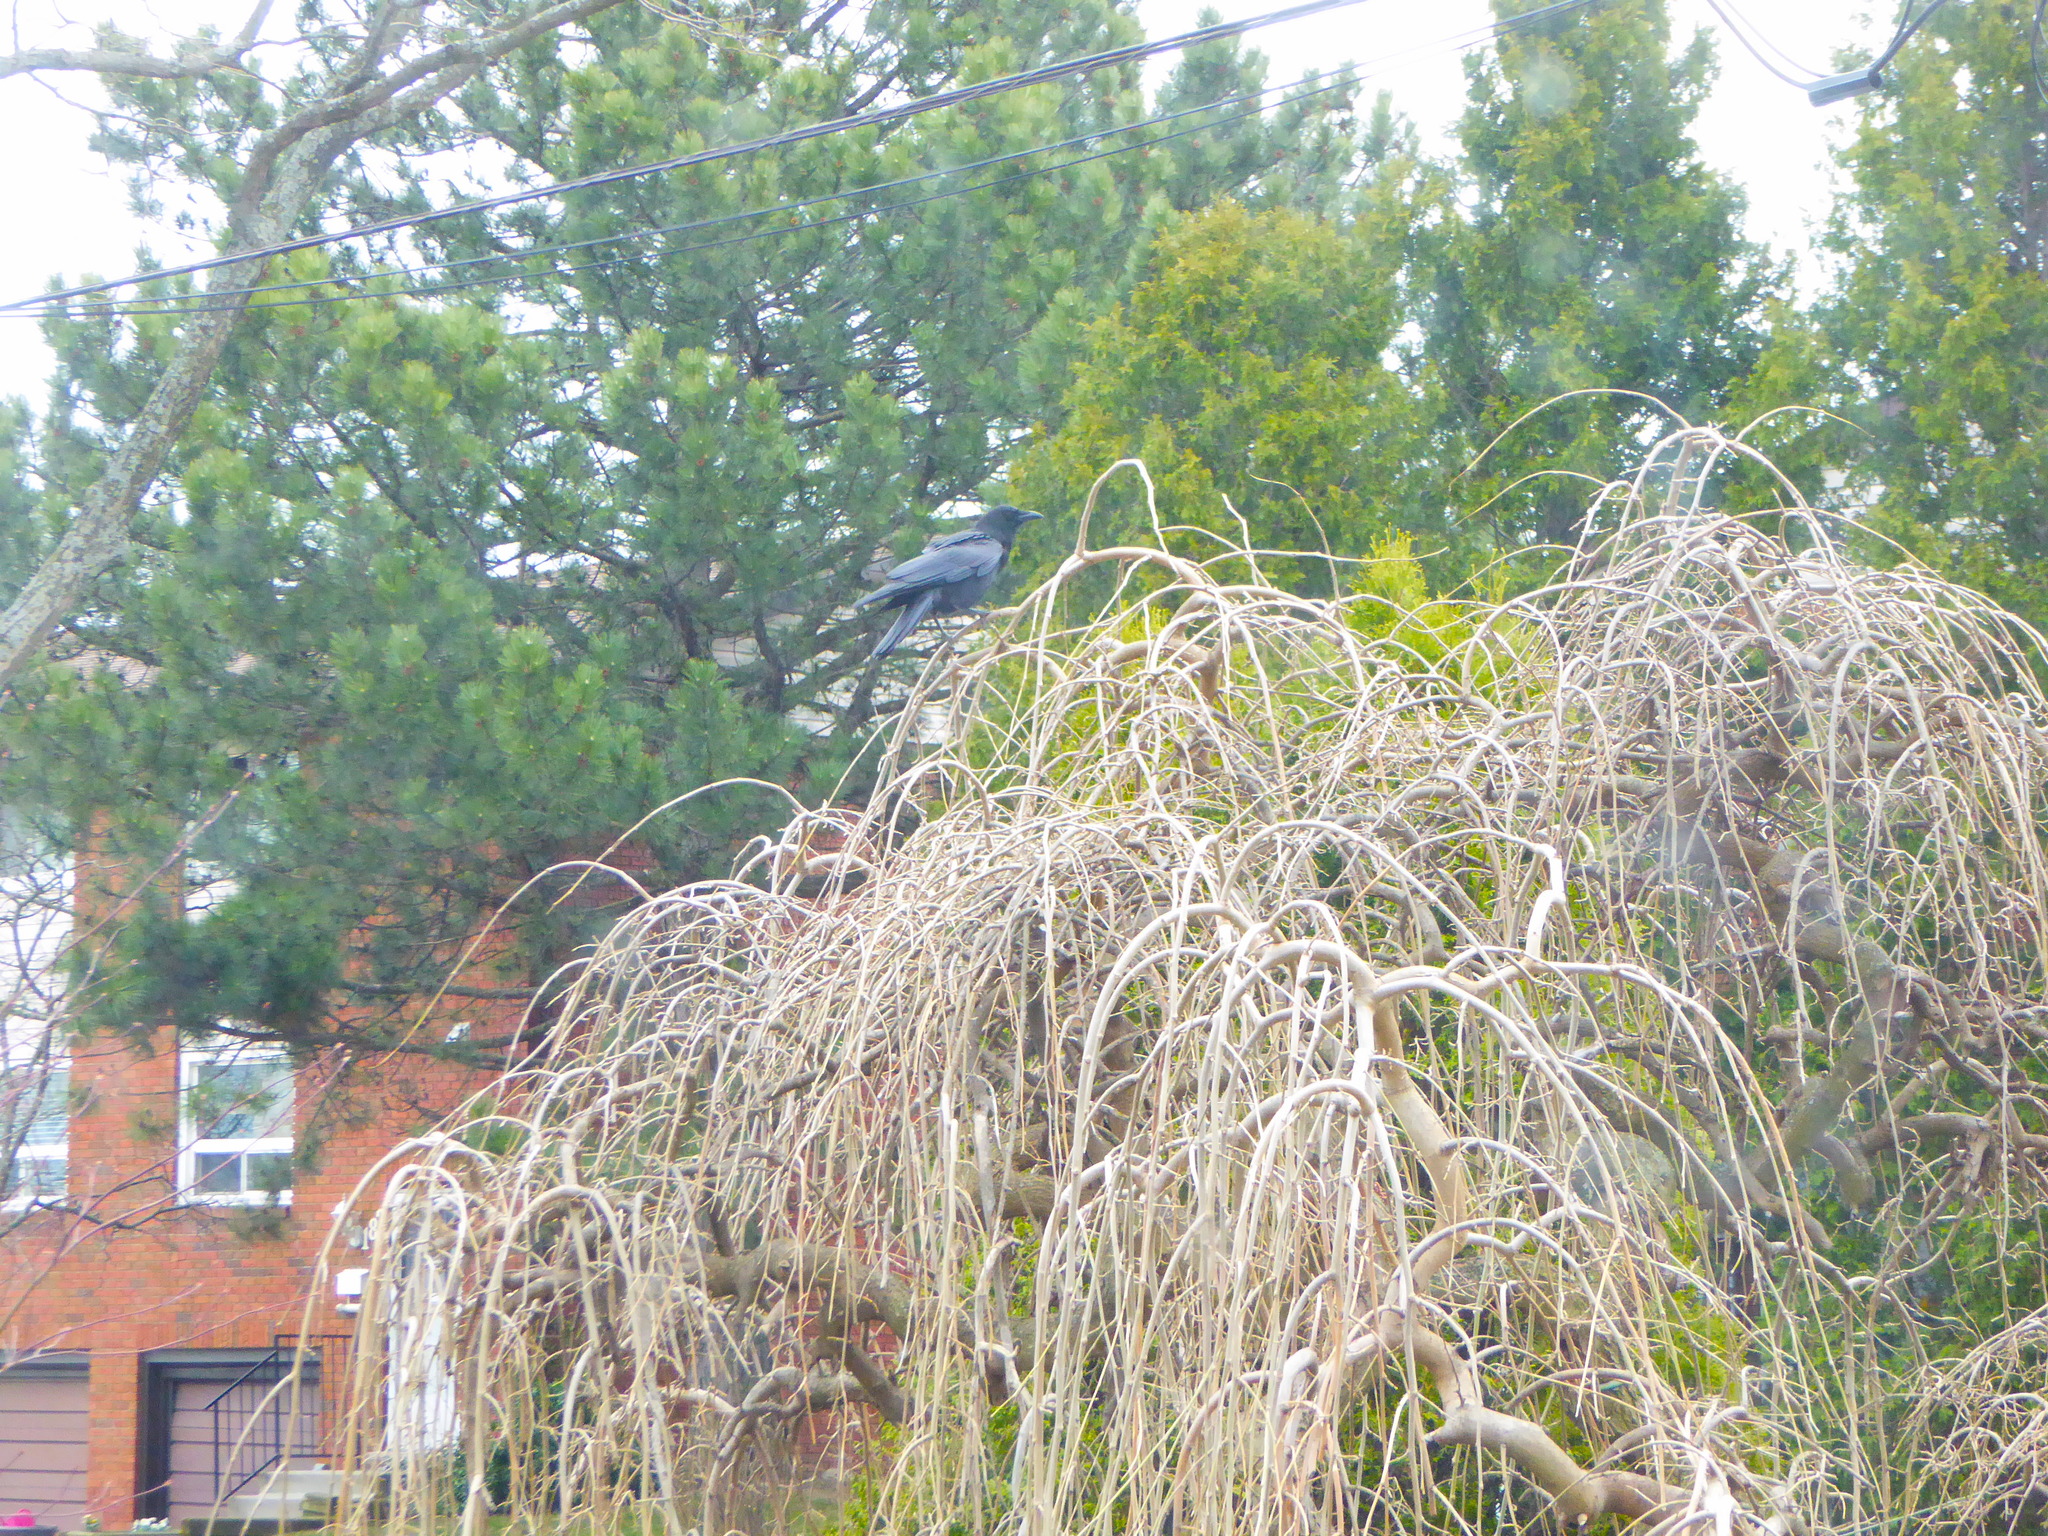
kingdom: Animalia
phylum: Chordata
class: Aves
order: Passeriformes
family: Corvidae
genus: Corvus
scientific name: Corvus brachyrhynchos
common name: American crow
